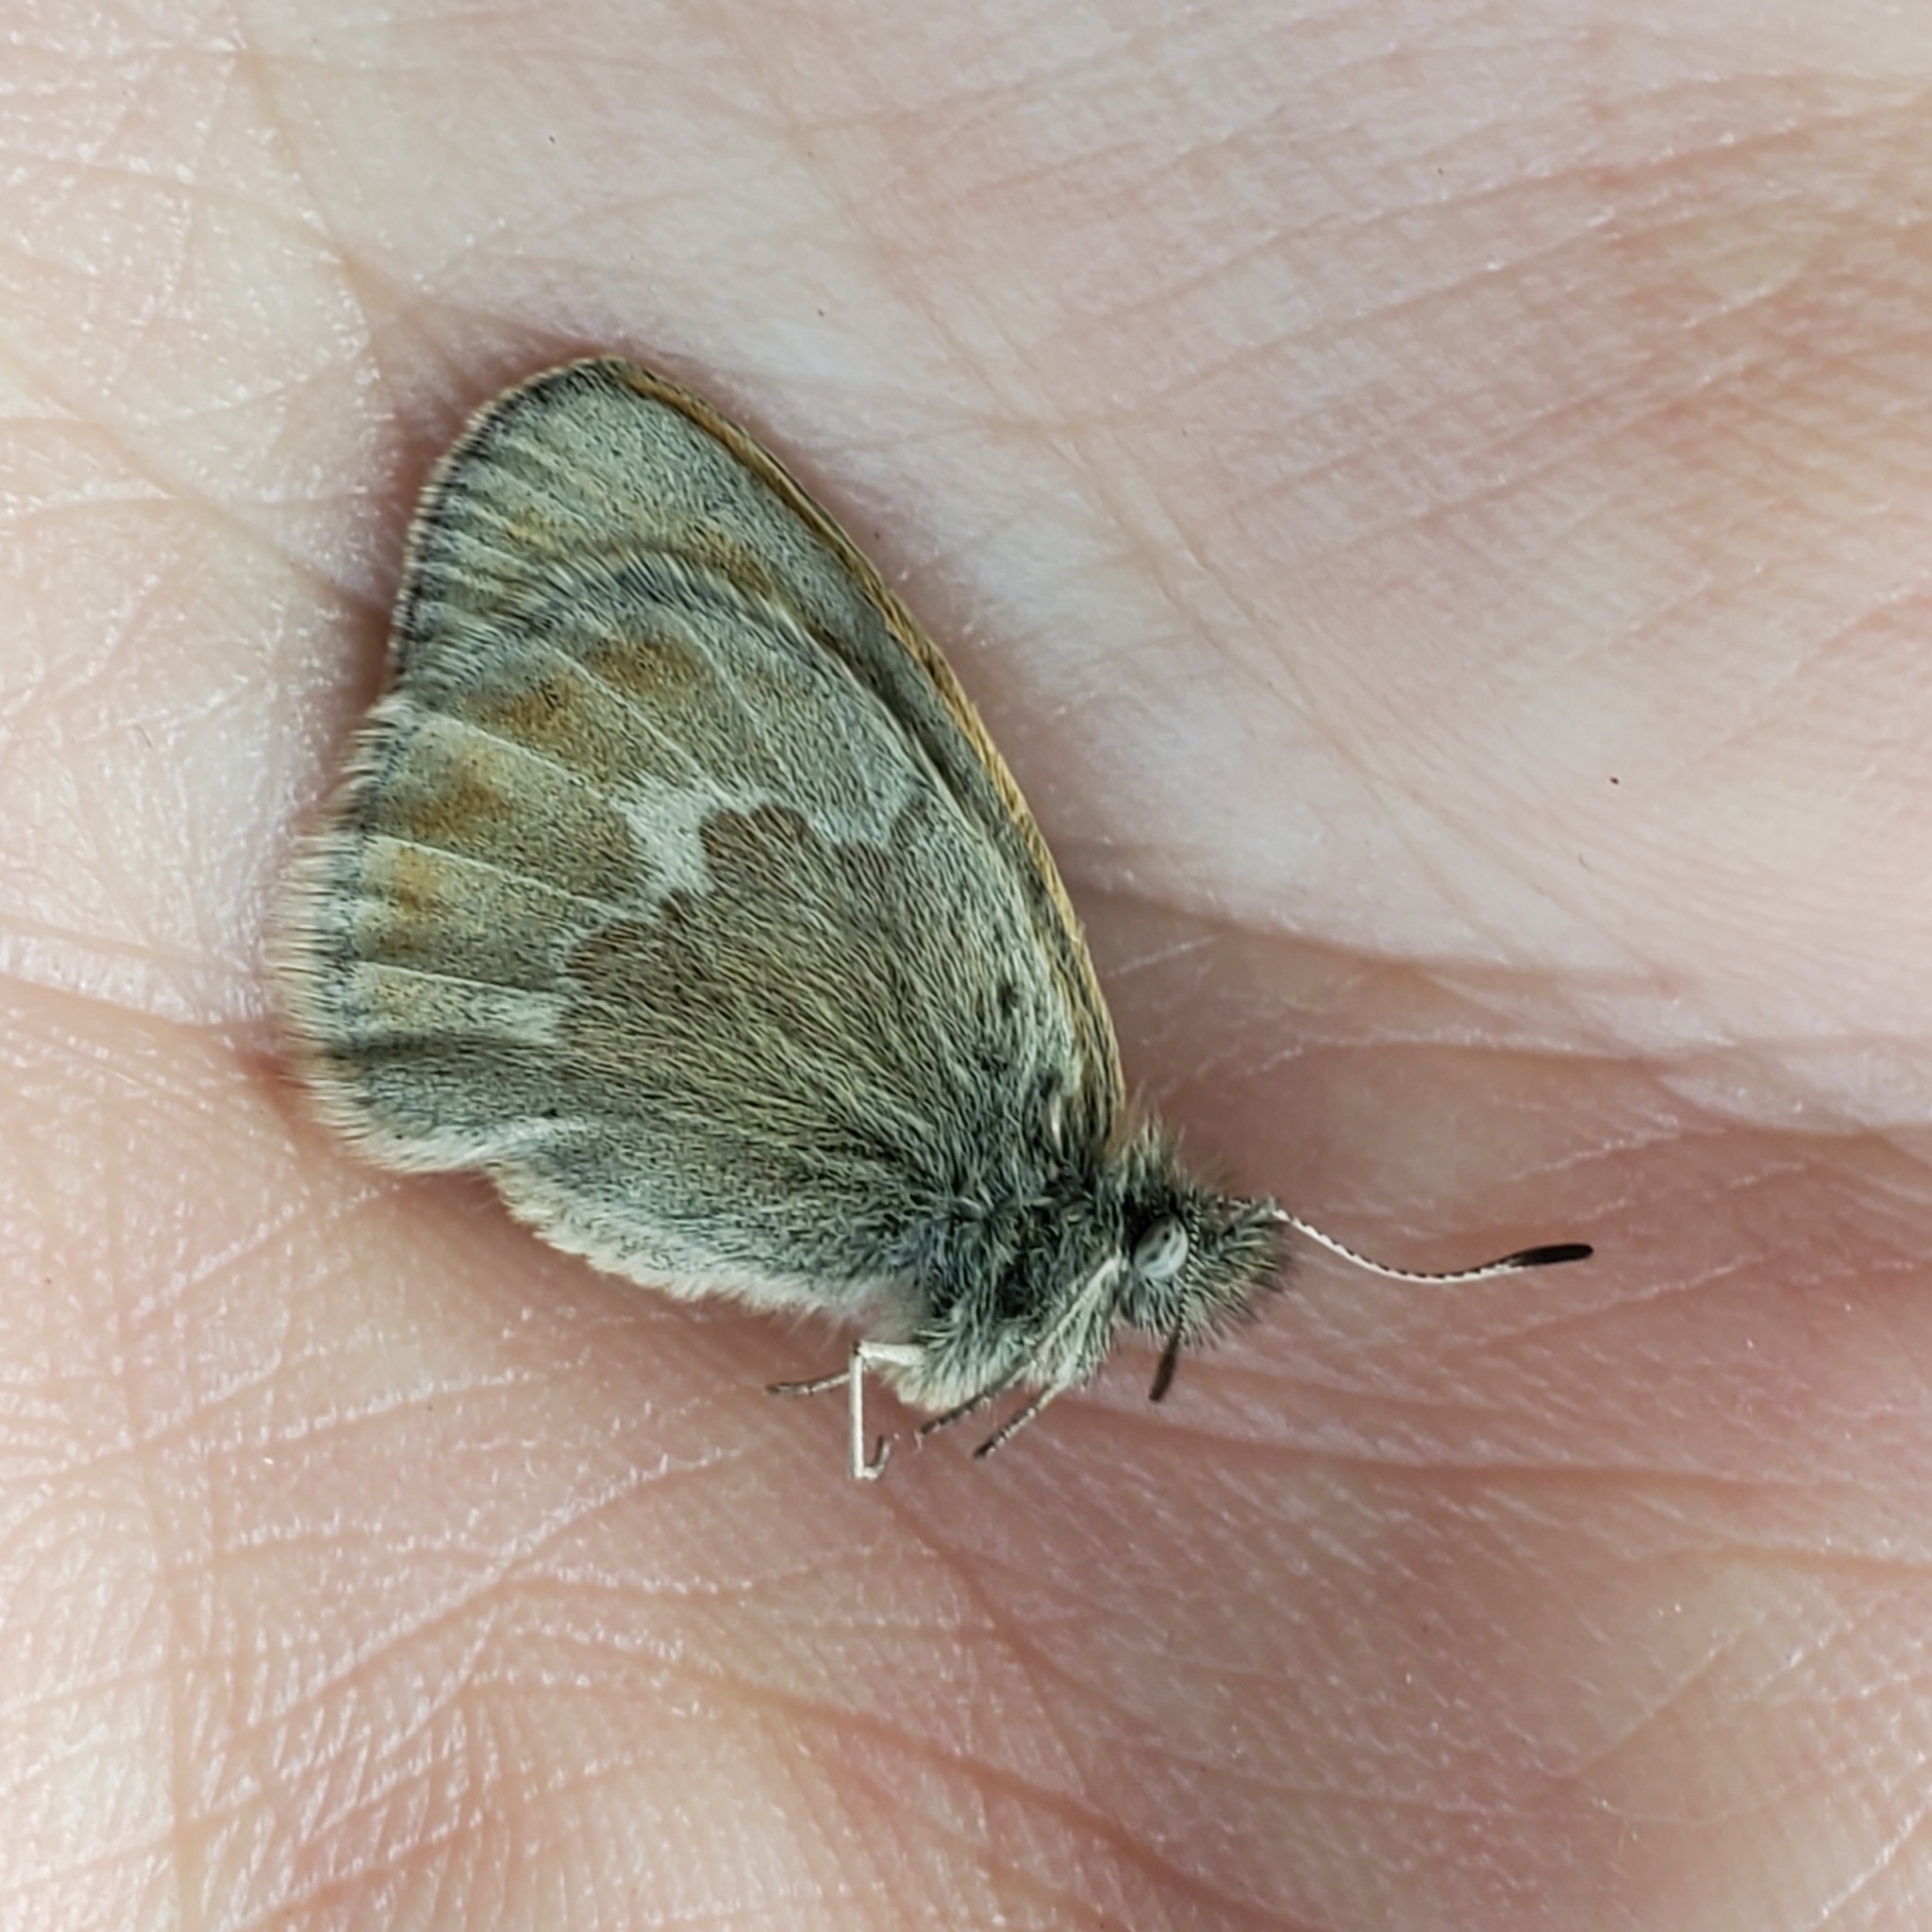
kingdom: Animalia
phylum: Arthropoda
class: Insecta
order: Lepidoptera
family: Nymphalidae
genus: Coenonympha
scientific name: Coenonympha california
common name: Common ringlet
